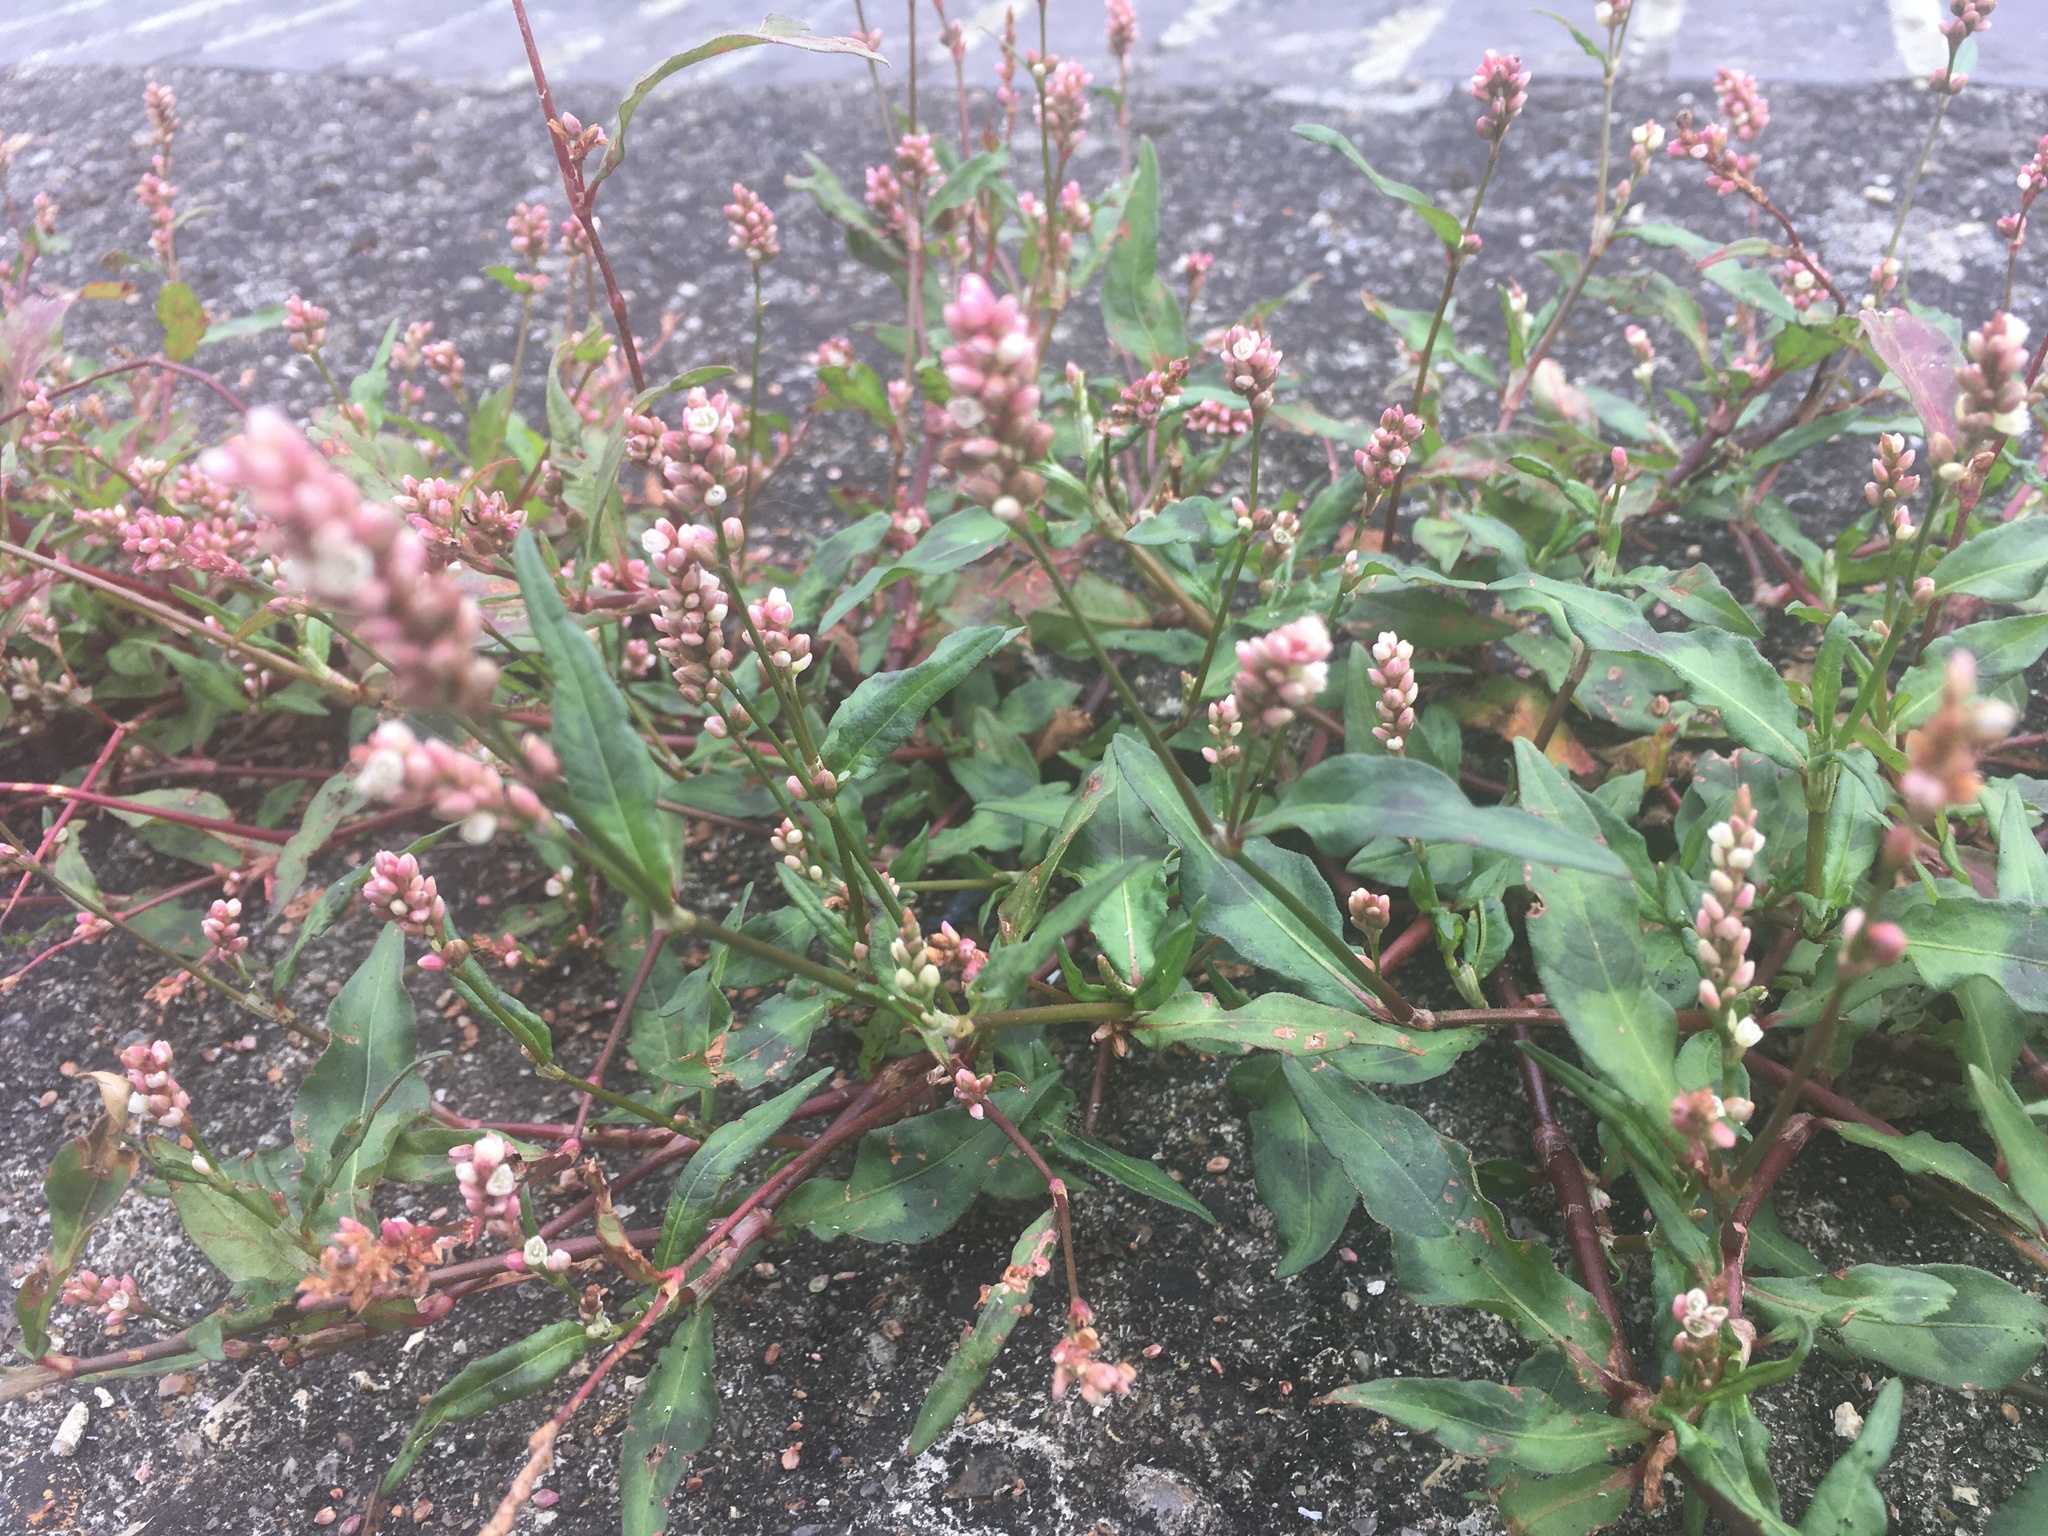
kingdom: Plantae
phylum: Tracheophyta
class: Magnoliopsida
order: Caryophyllales
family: Polygonaceae
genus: Persicaria
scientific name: Persicaria maculosa
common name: Redshank
